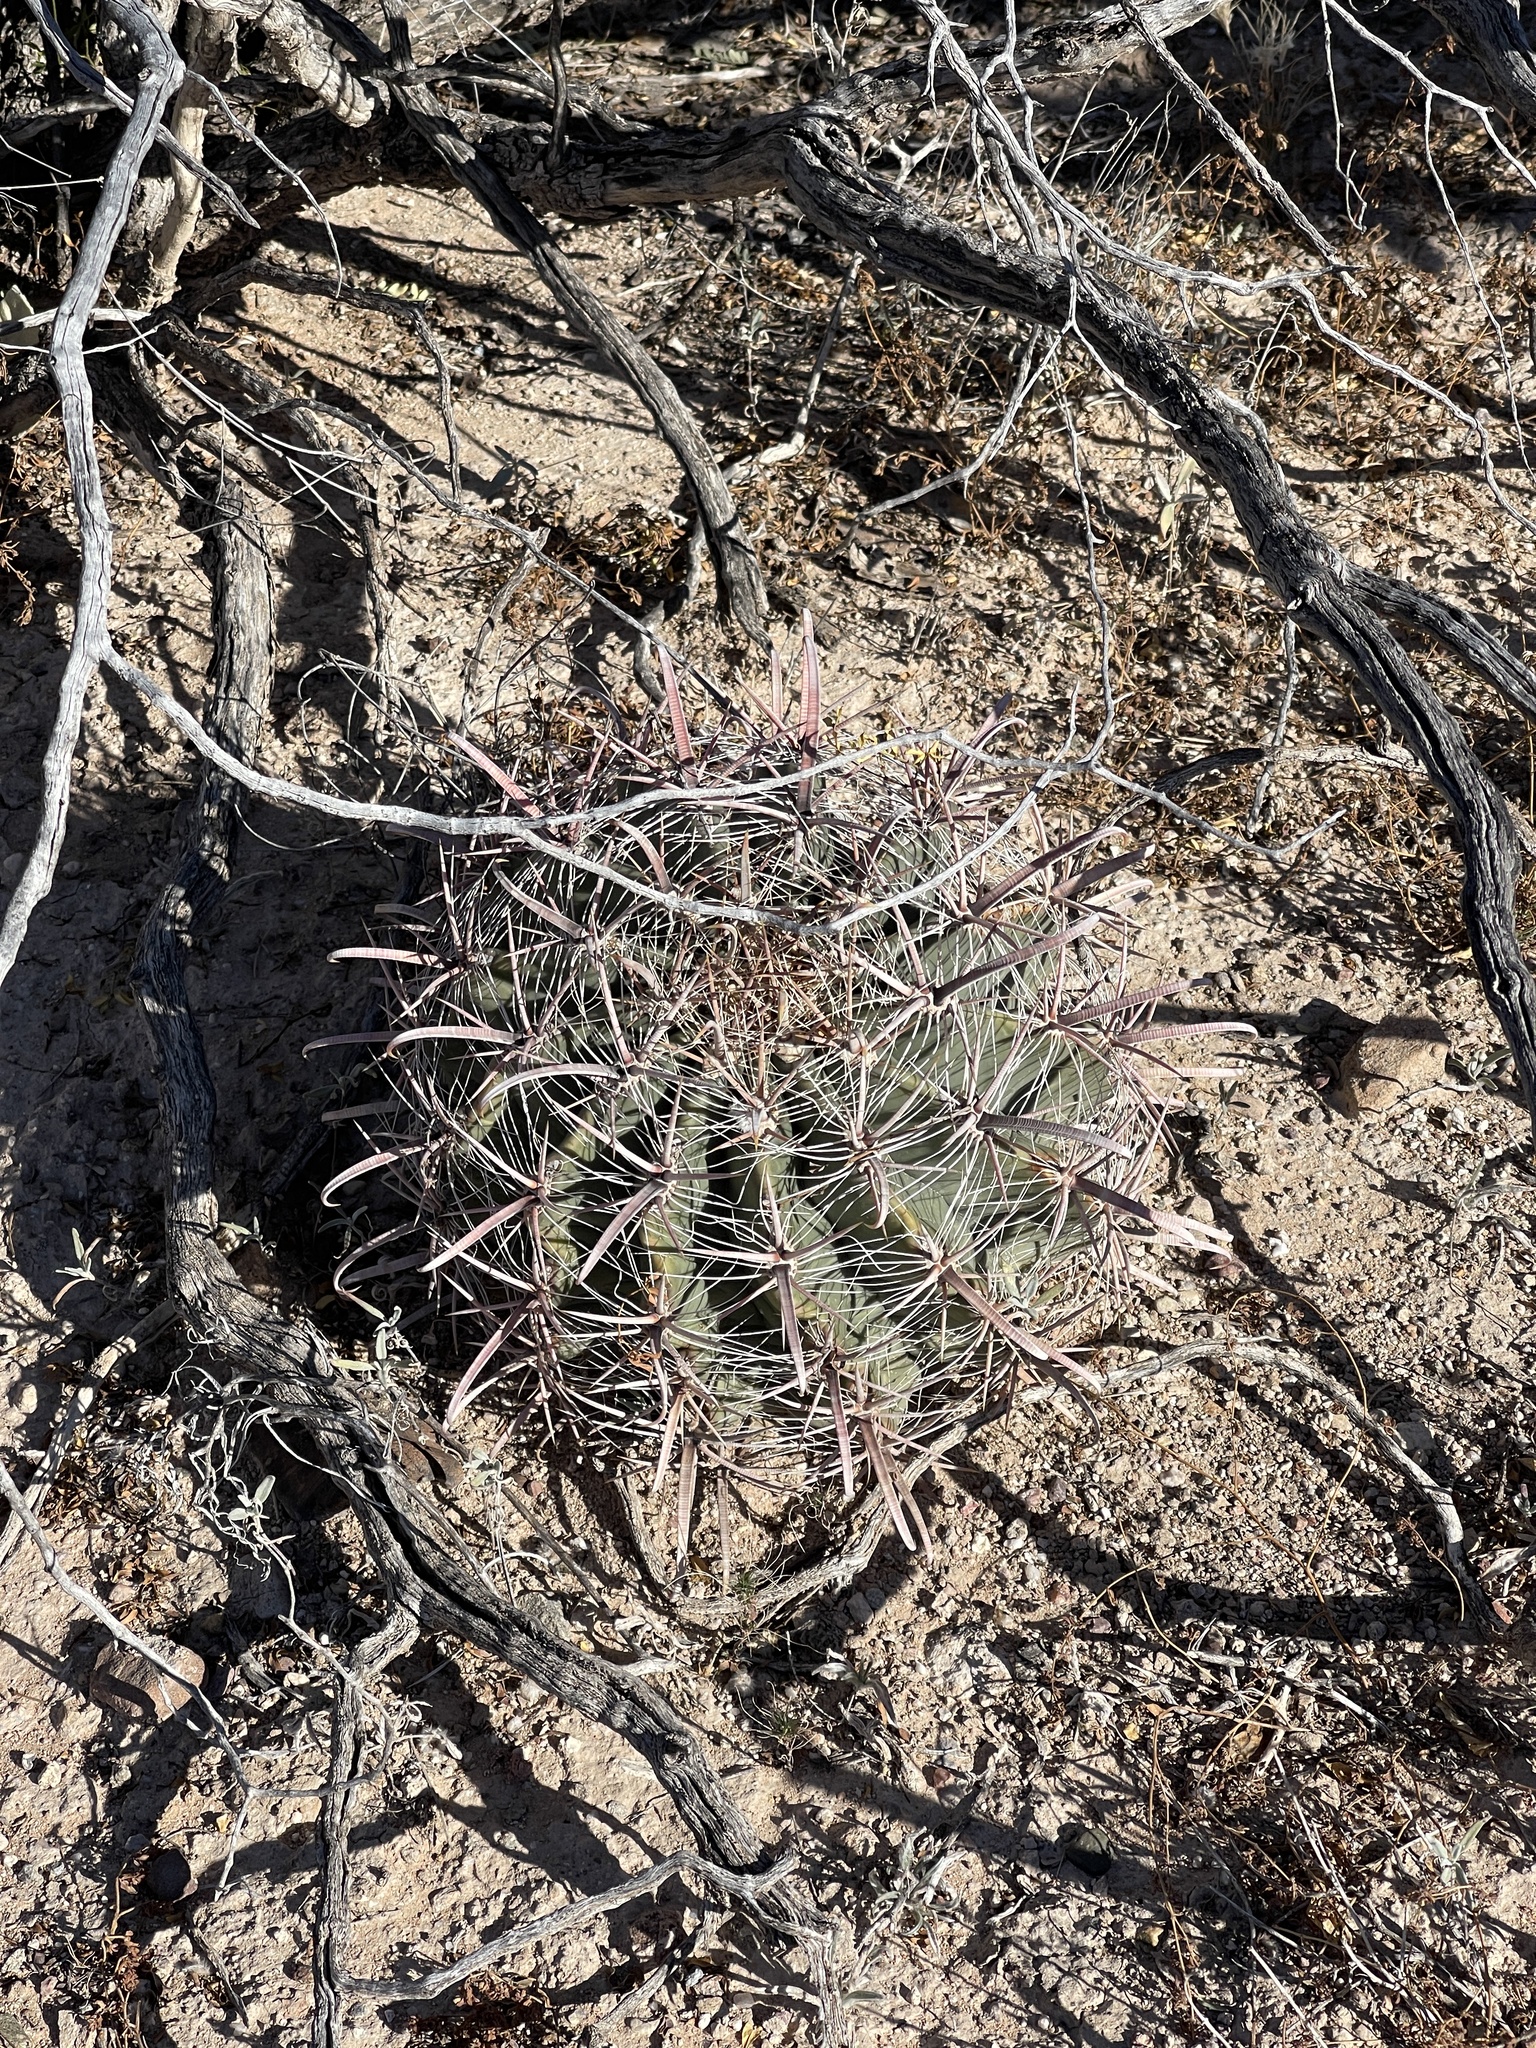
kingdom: Plantae
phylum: Tracheophyta
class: Magnoliopsida
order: Caryophyllales
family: Cactaceae
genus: Ferocactus
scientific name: Ferocactus wislizeni
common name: Candy barrel cactus
